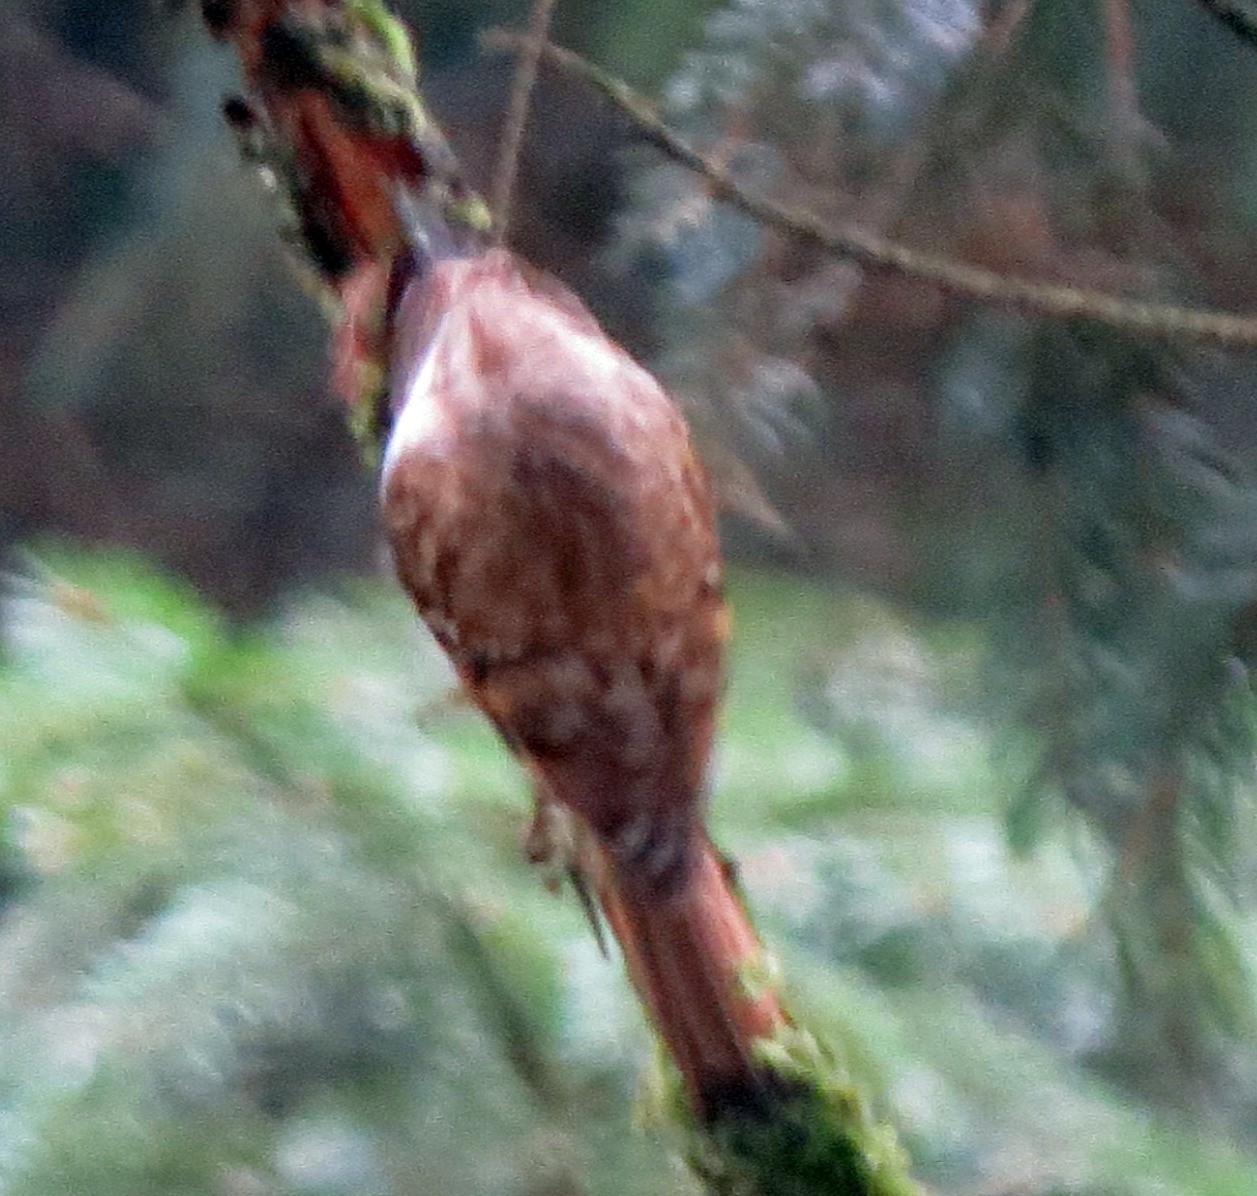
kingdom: Animalia
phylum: Chordata
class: Aves
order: Passeriformes
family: Certhiidae
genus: Certhia
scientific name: Certhia familiaris
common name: Eurasian treecreeper
